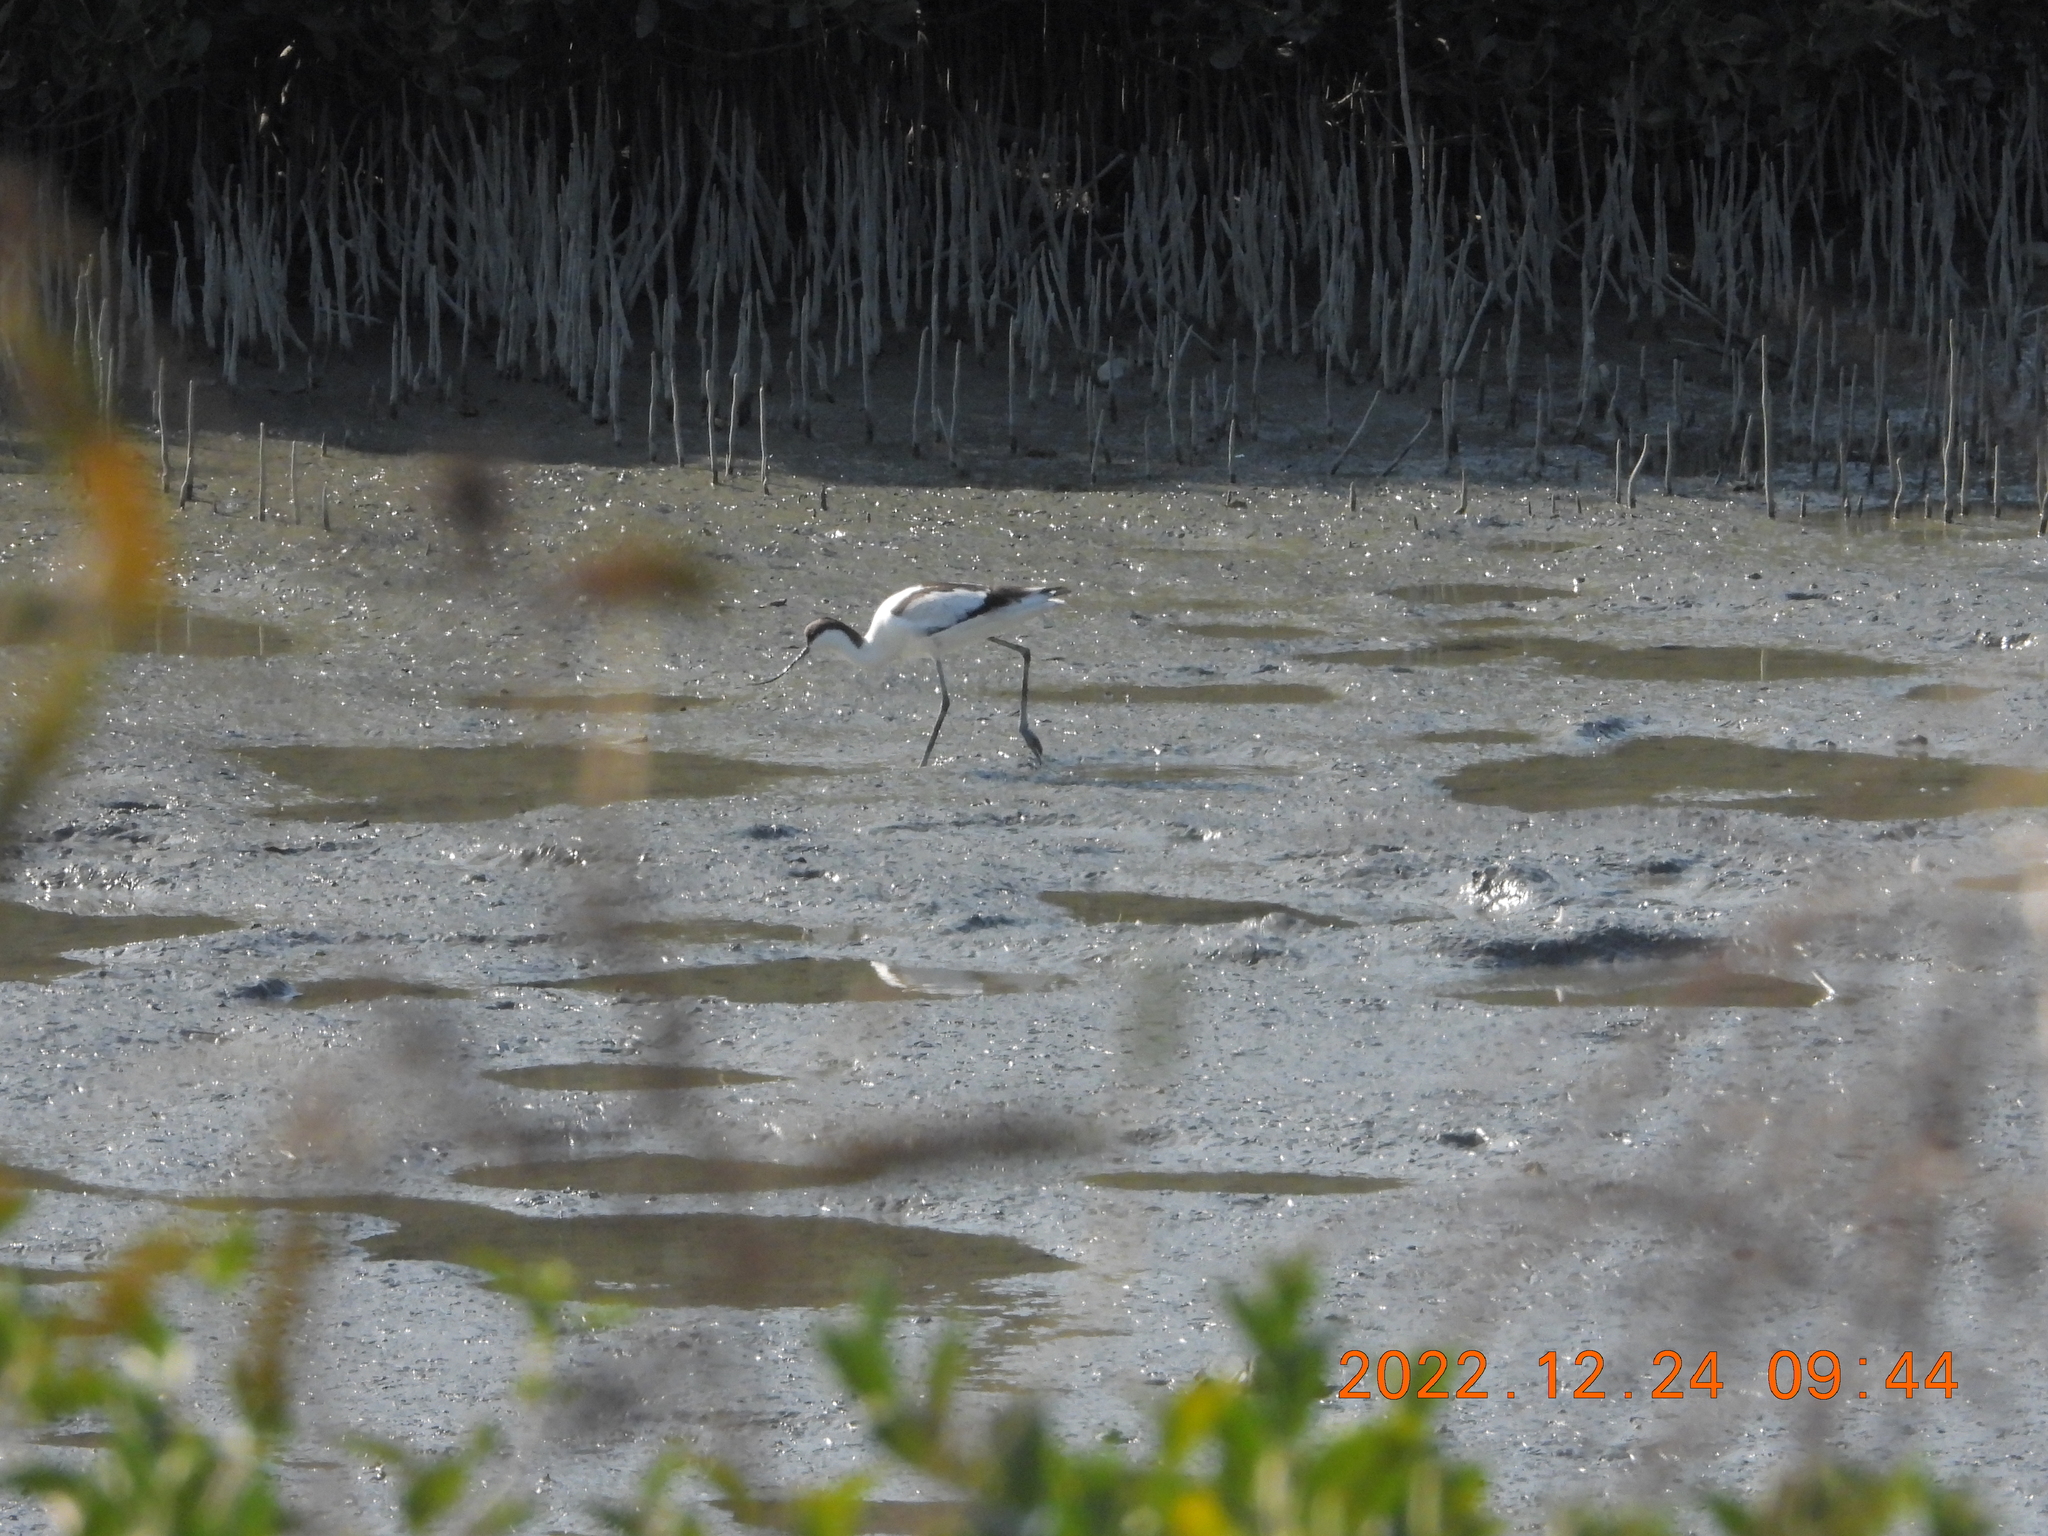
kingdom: Animalia
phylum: Chordata
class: Aves
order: Charadriiformes
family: Recurvirostridae
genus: Recurvirostra
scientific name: Recurvirostra avosetta
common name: Pied avocet
